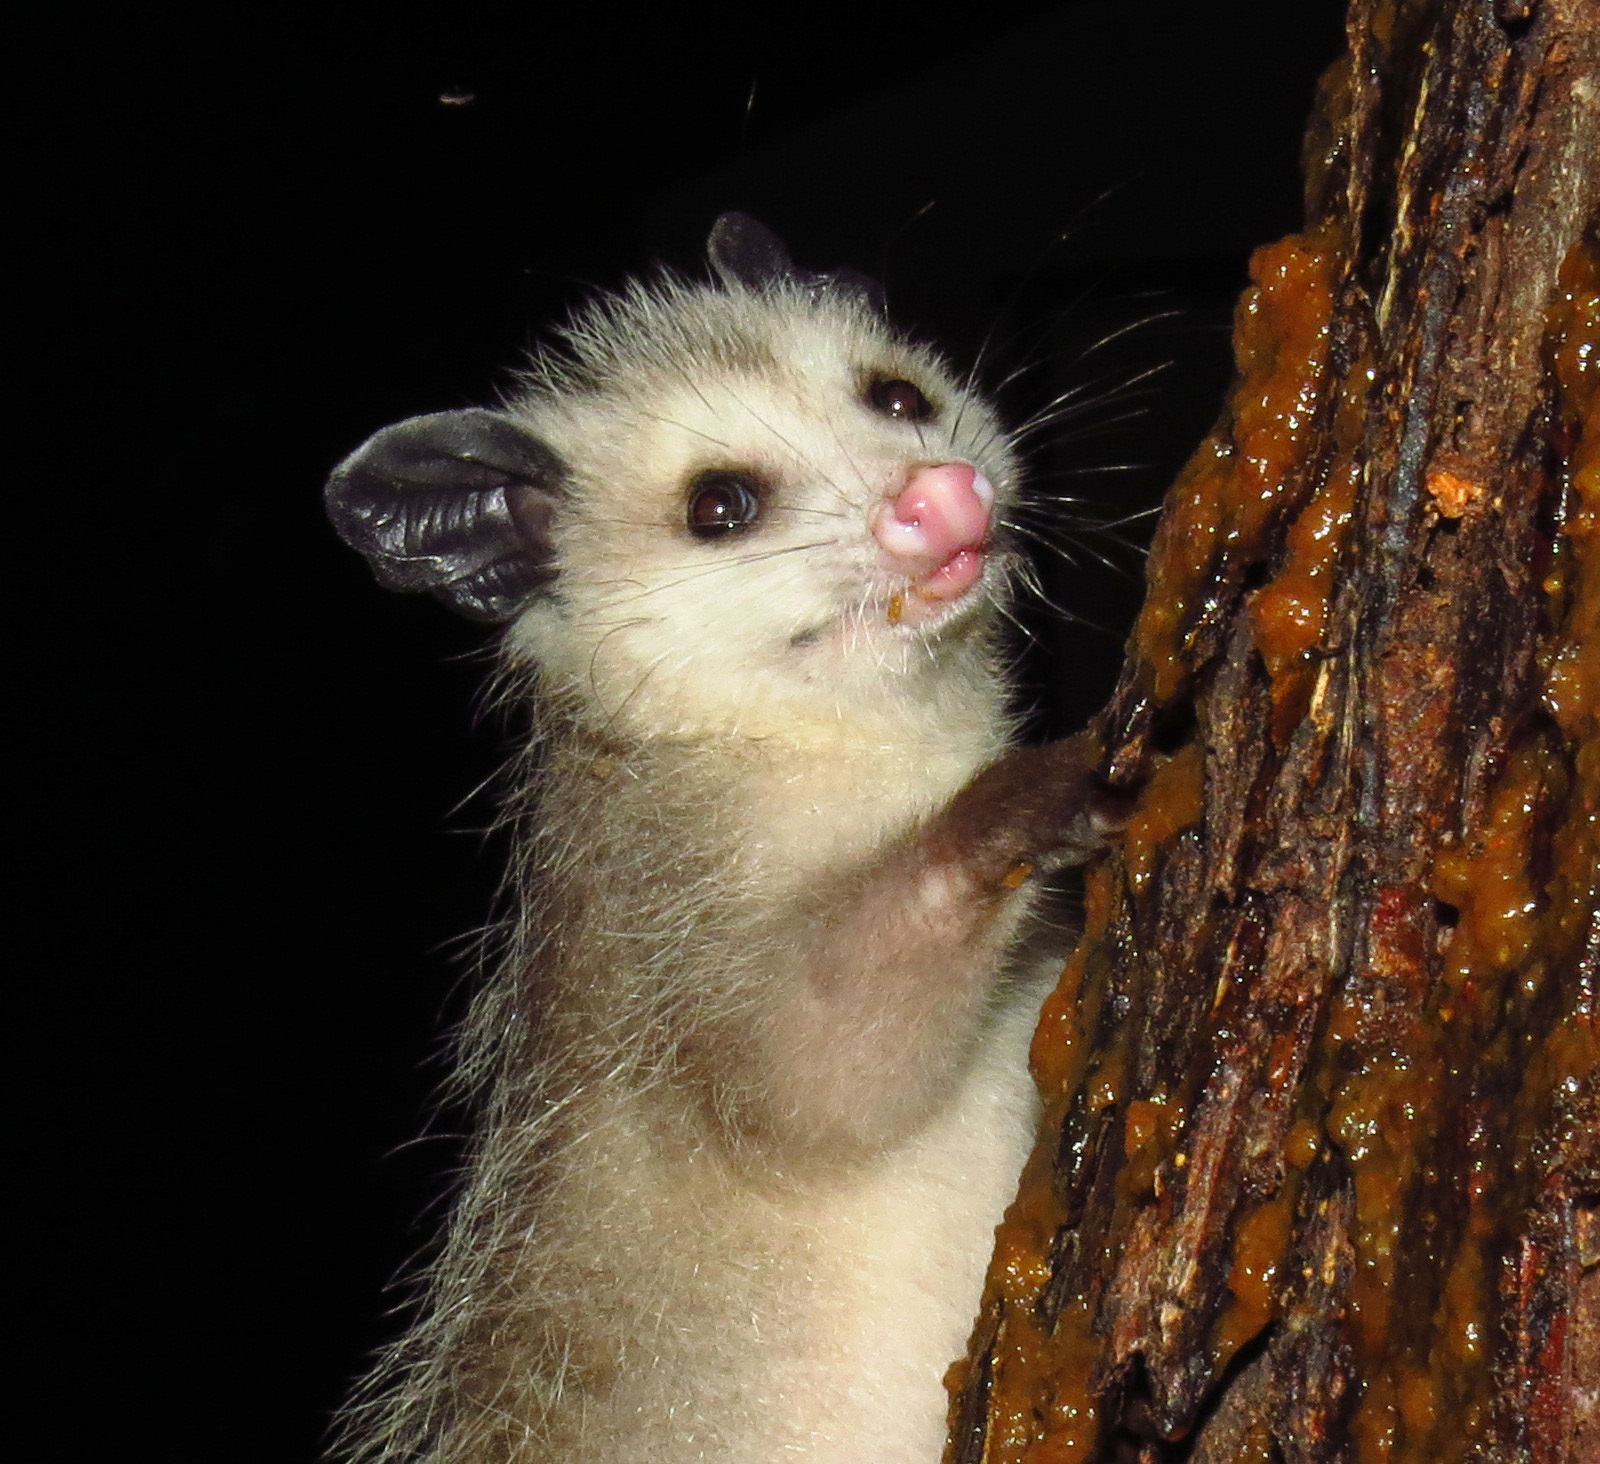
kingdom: Animalia
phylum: Chordata
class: Mammalia
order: Didelphimorphia
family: Didelphidae
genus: Didelphis
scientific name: Didelphis virginiana
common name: Virginia opossum
